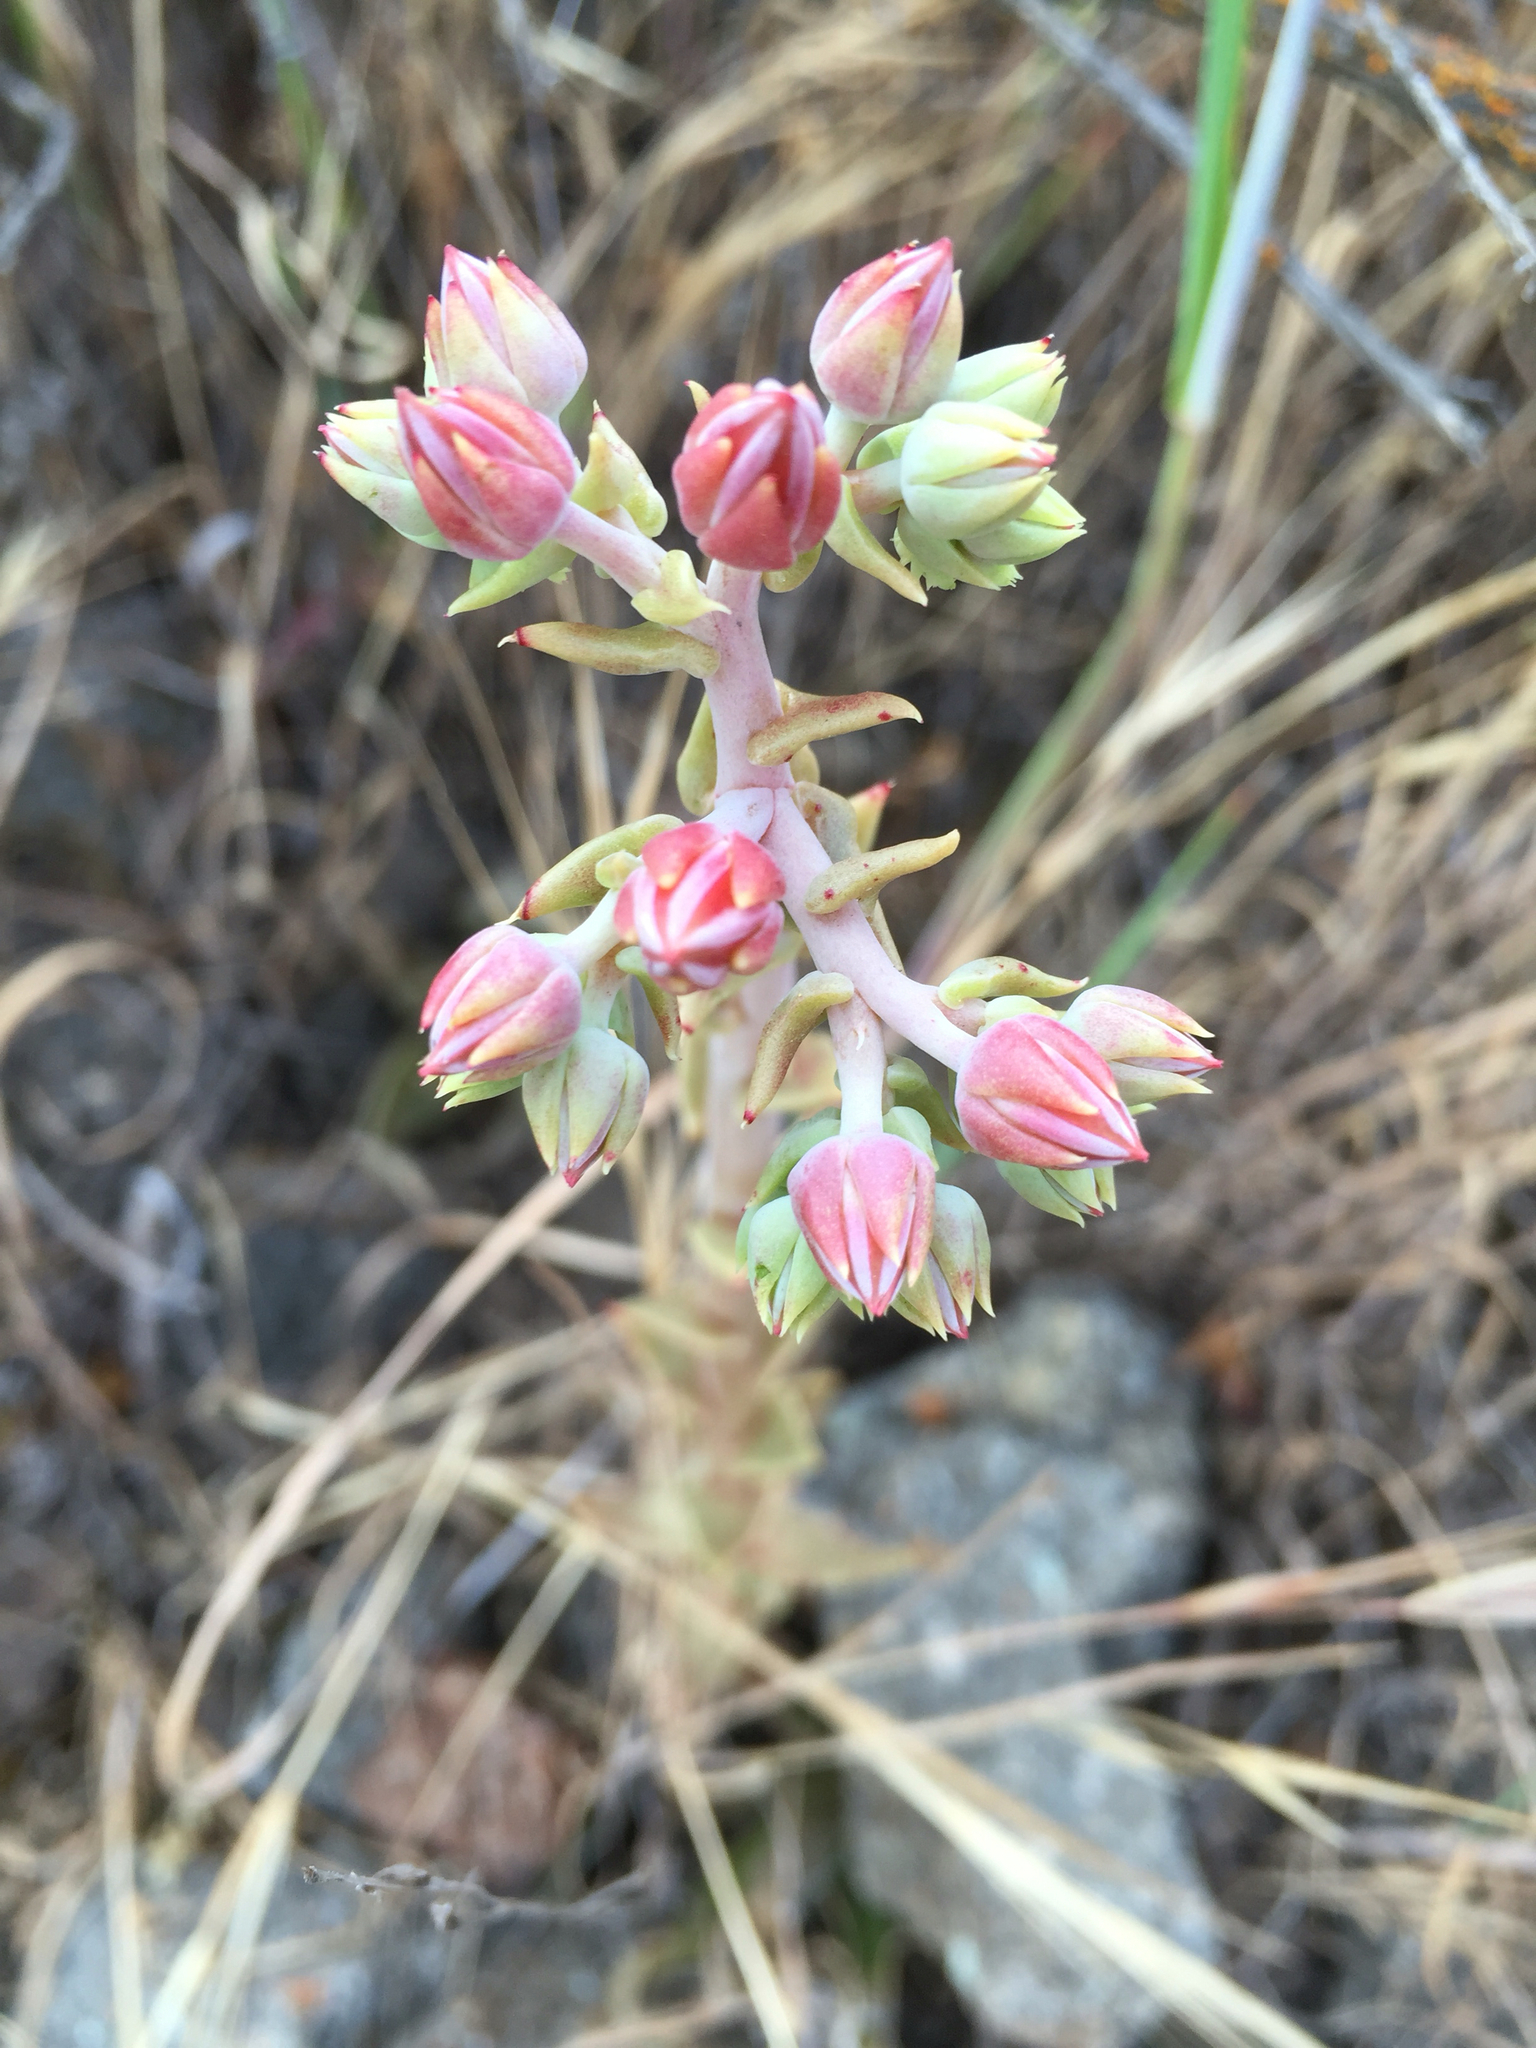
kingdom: Plantae
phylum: Tracheophyta
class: Magnoliopsida
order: Saxifragales
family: Crassulaceae
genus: Dudleya
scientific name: Dudleya lanceolata
